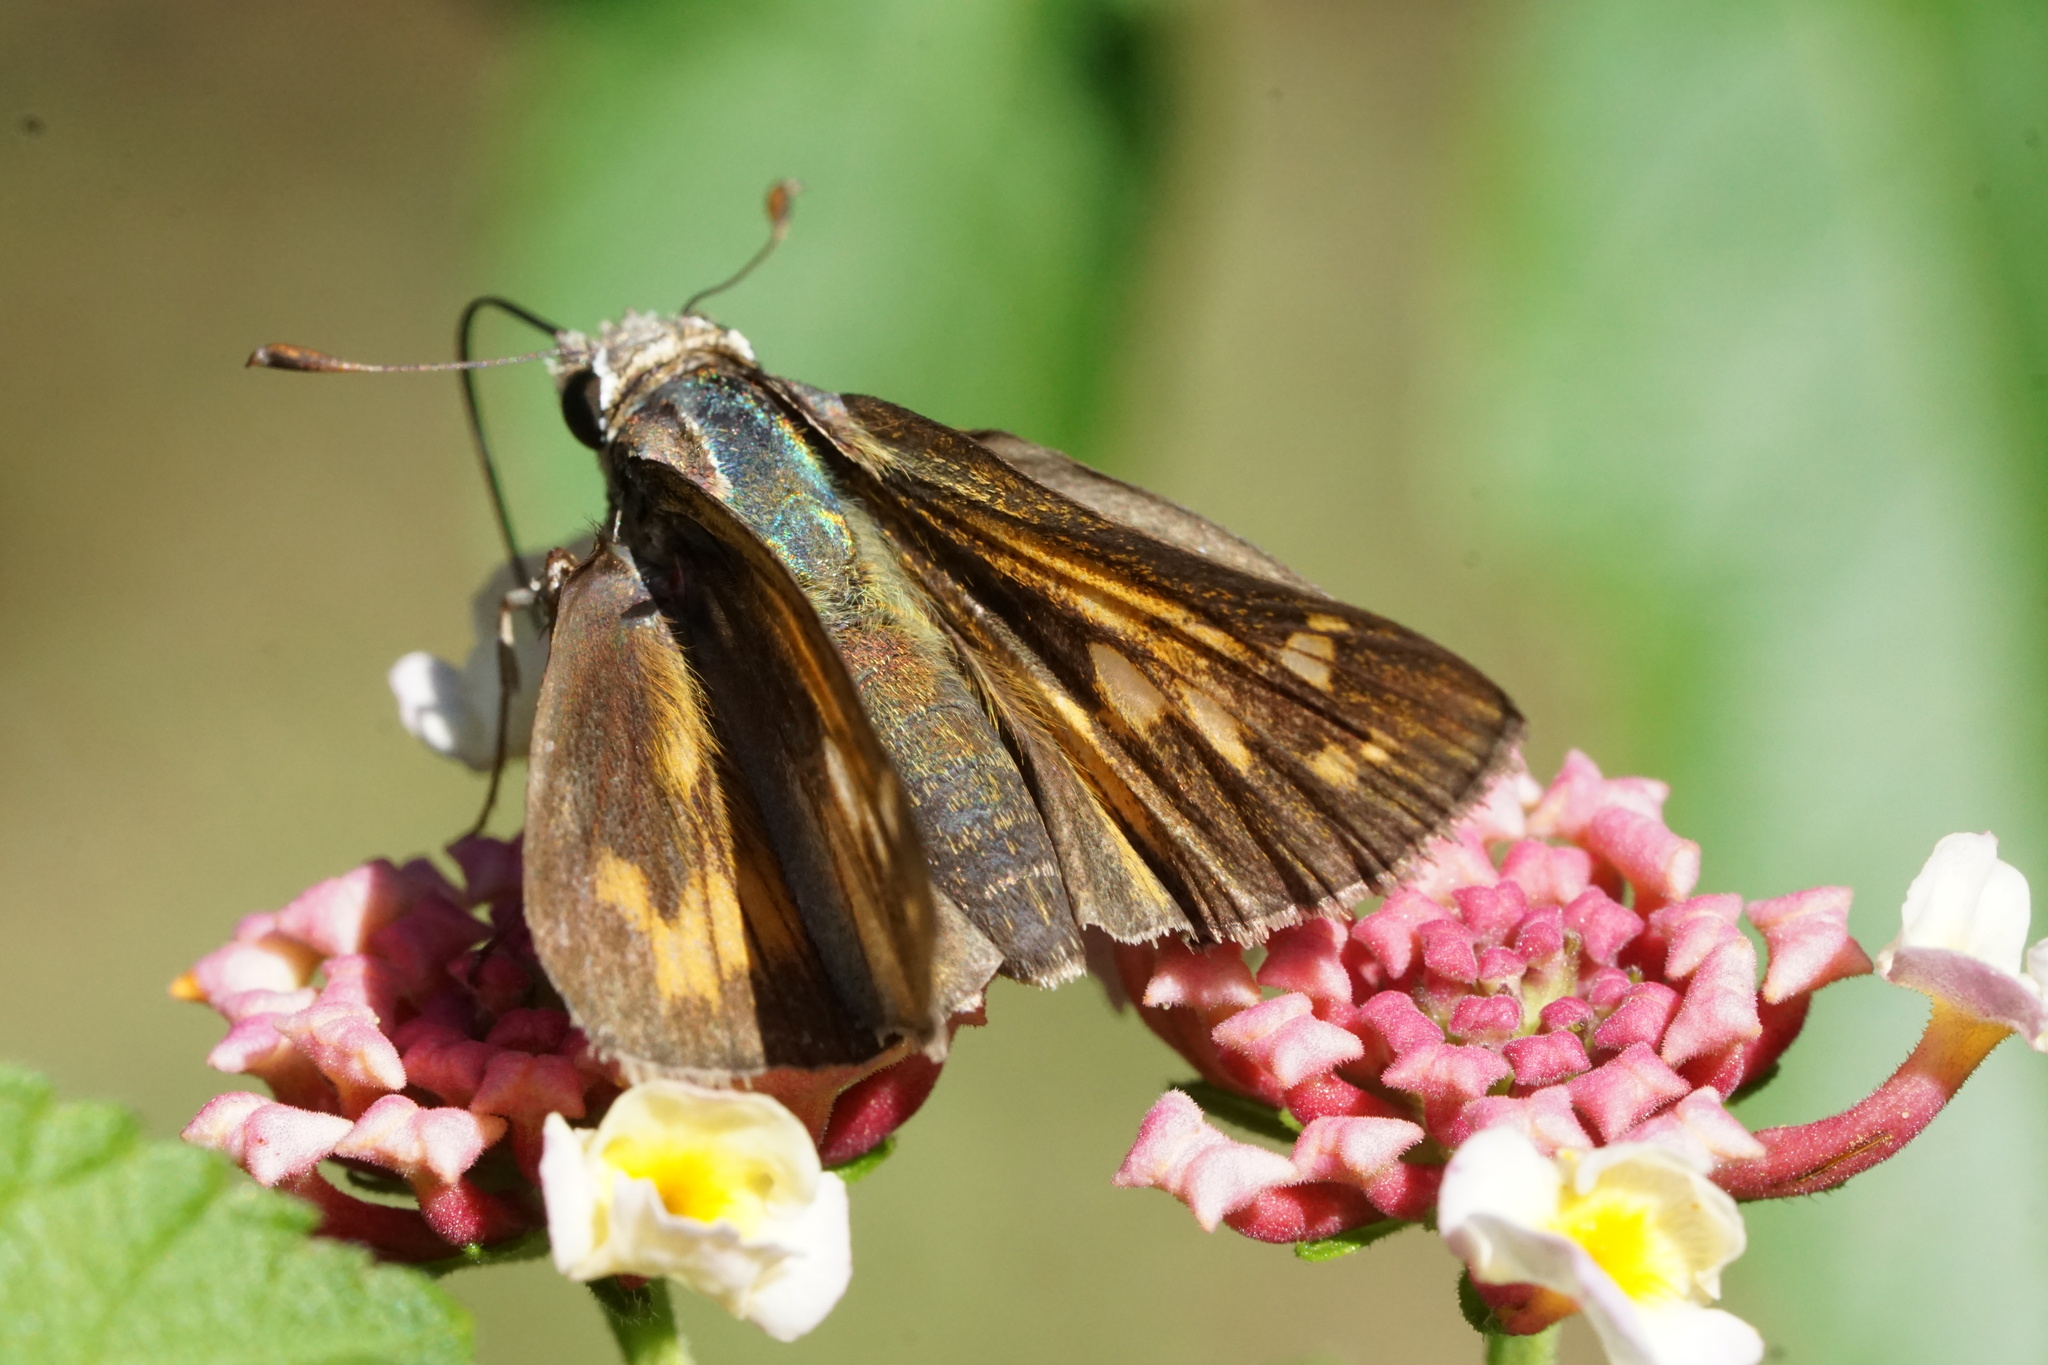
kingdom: Animalia
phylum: Arthropoda
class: Insecta
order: Lepidoptera
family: Hesperiidae
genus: Atalopedes
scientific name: Atalopedes
